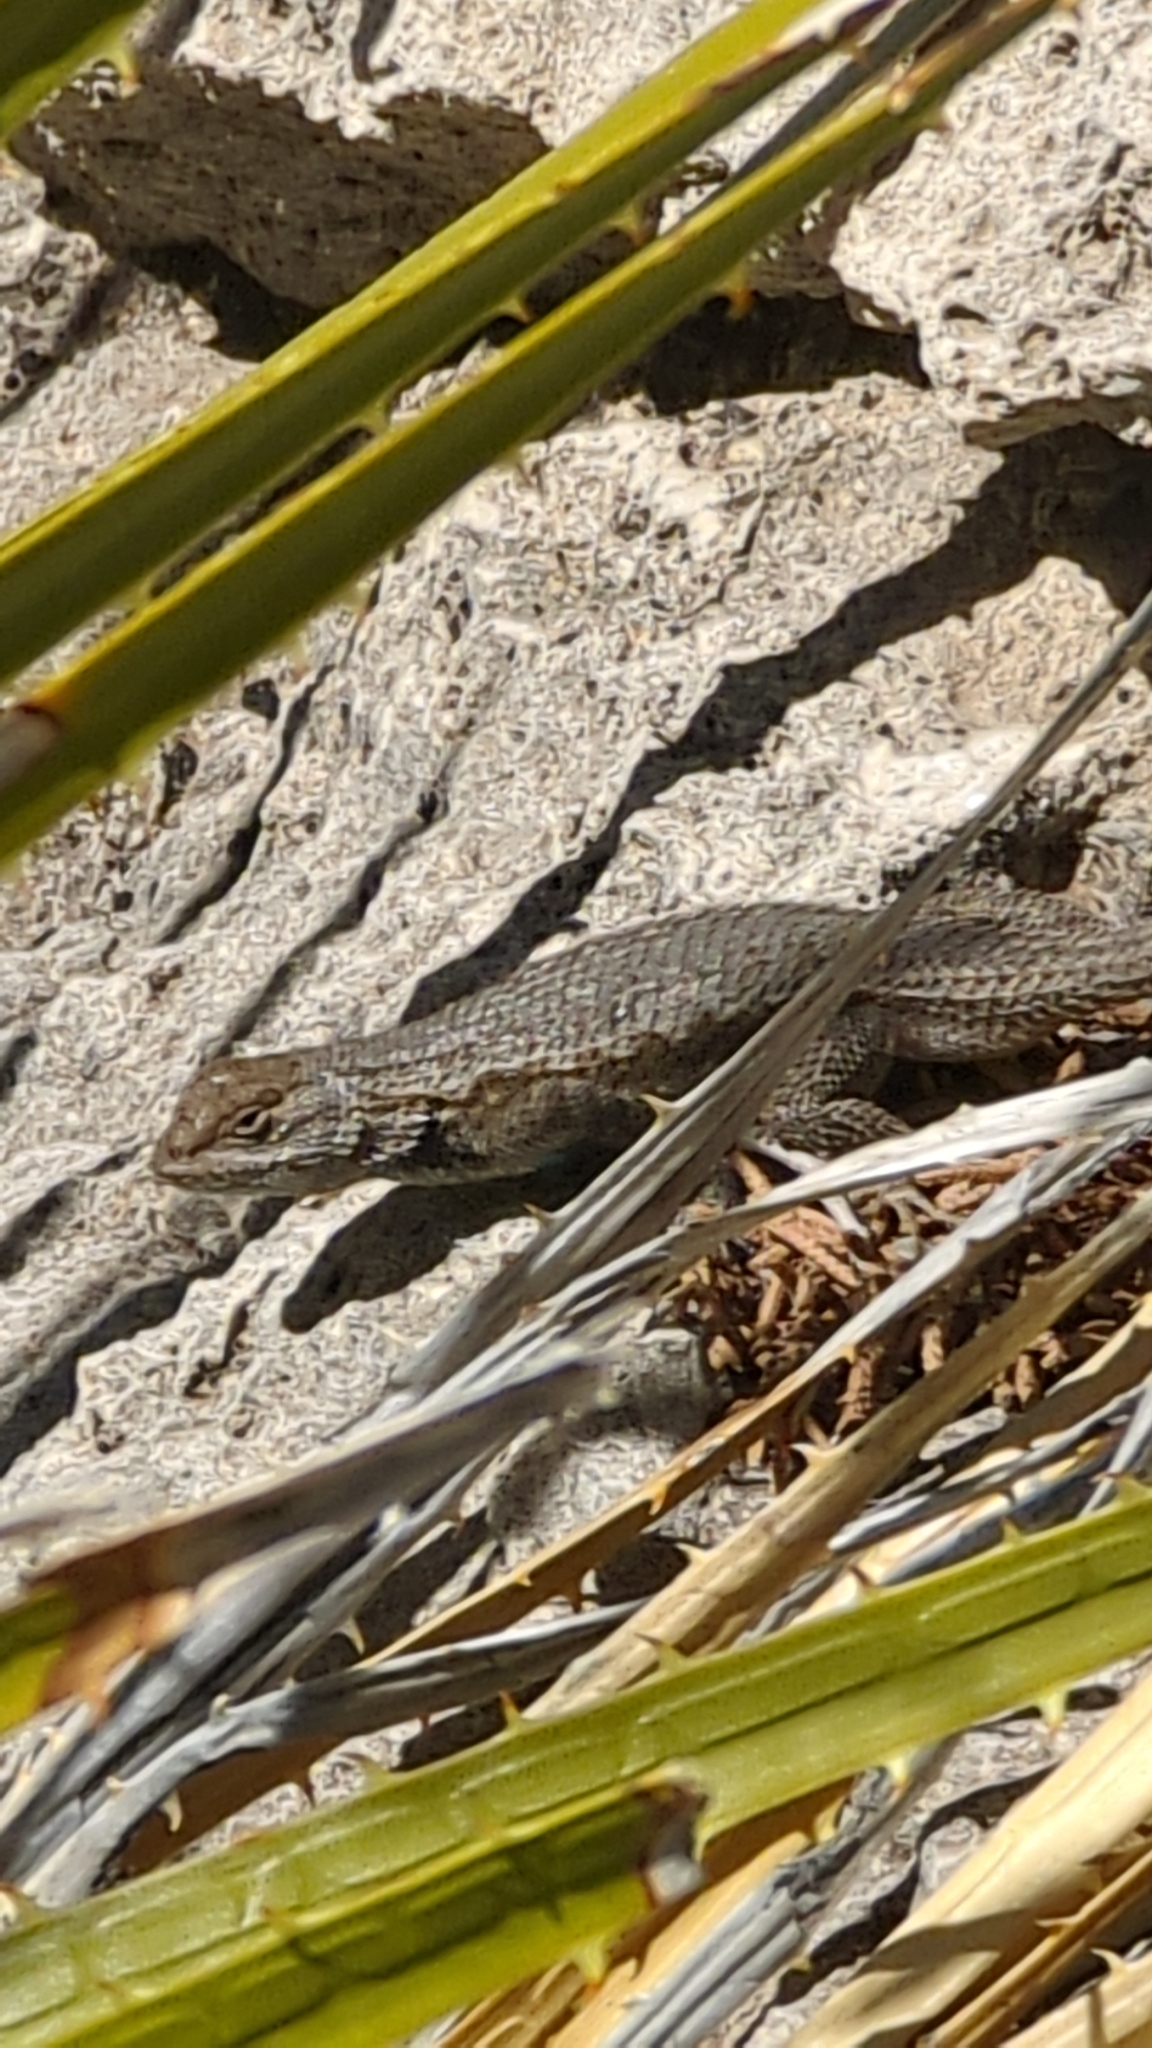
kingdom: Animalia
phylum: Chordata
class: Squamata
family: Phrynosomatidae
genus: Sceloporus
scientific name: Sceloporus cowlesi
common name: White sands prairie lizard
